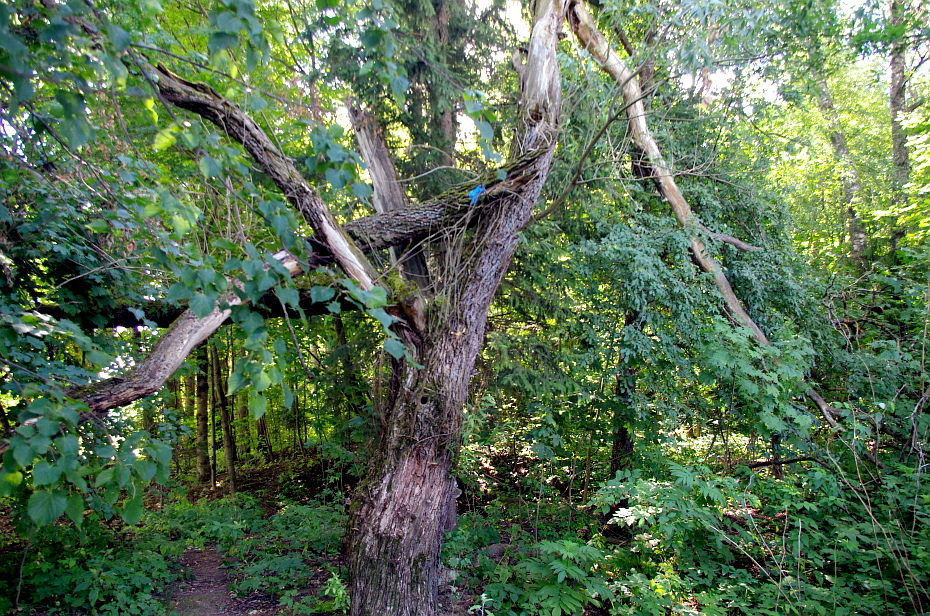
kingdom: Plantae
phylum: Tracheophyta
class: Magnoliopsida
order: Malpighiales
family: Salicaceae
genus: Salix
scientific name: Salix fragilis
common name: Crack willow
